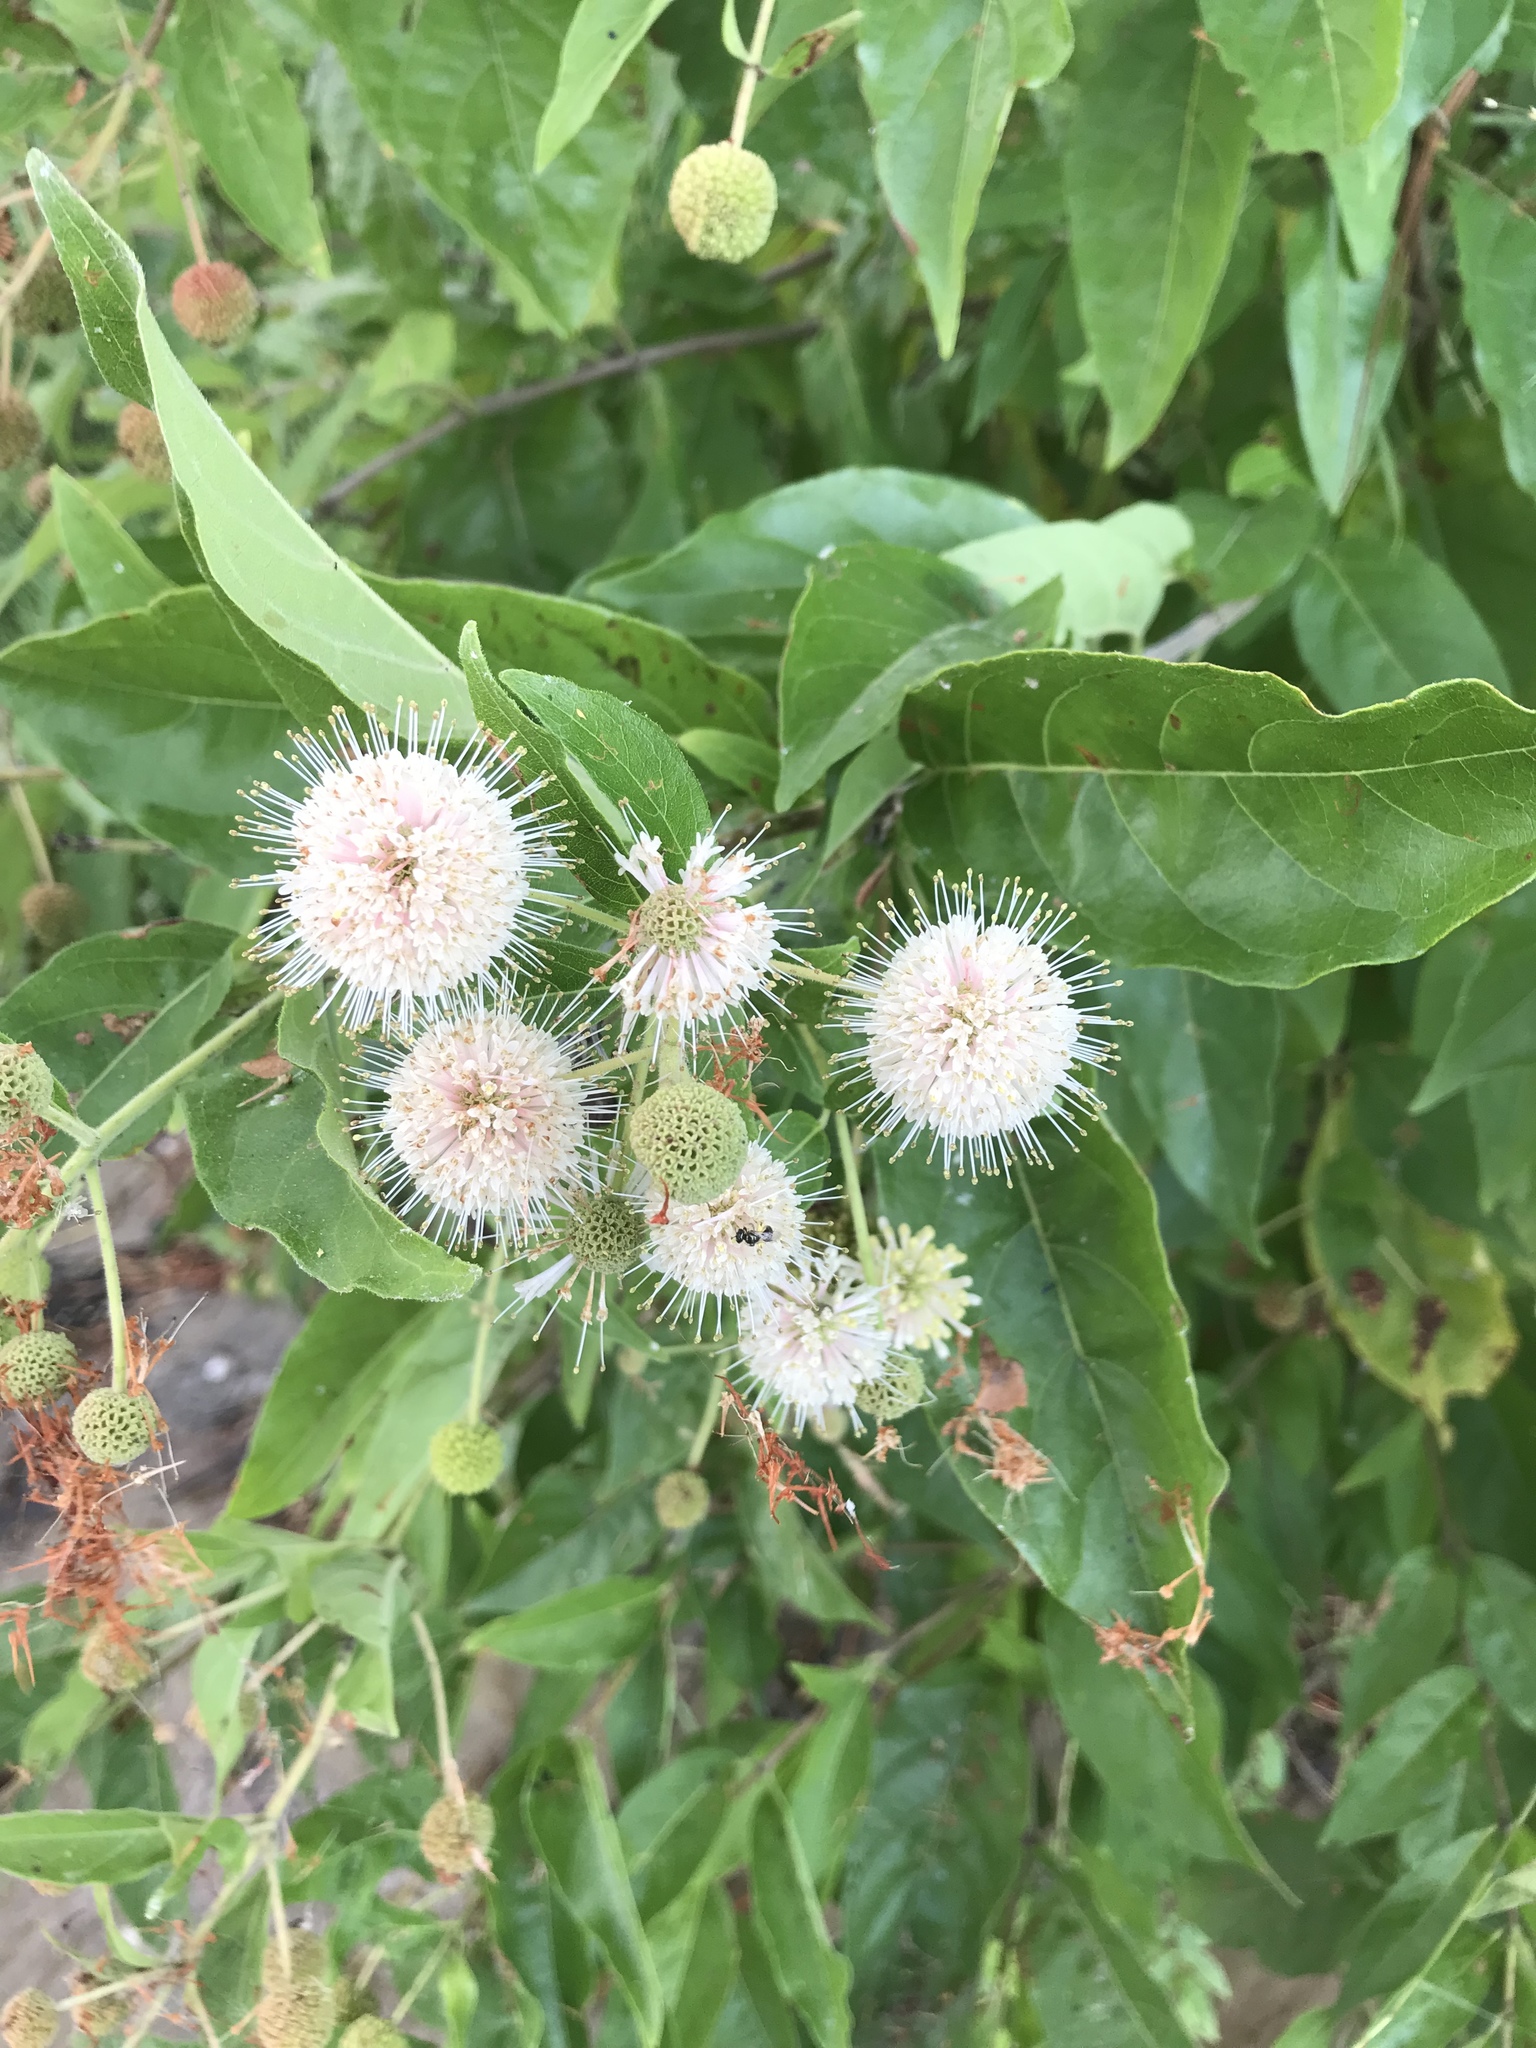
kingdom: Plantae
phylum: Tracheophyta
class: Magnoliopsida
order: Gentianales
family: Rubiaceae
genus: Cephalanthus
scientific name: Cephalanthus occidentalis
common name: Button-willow
